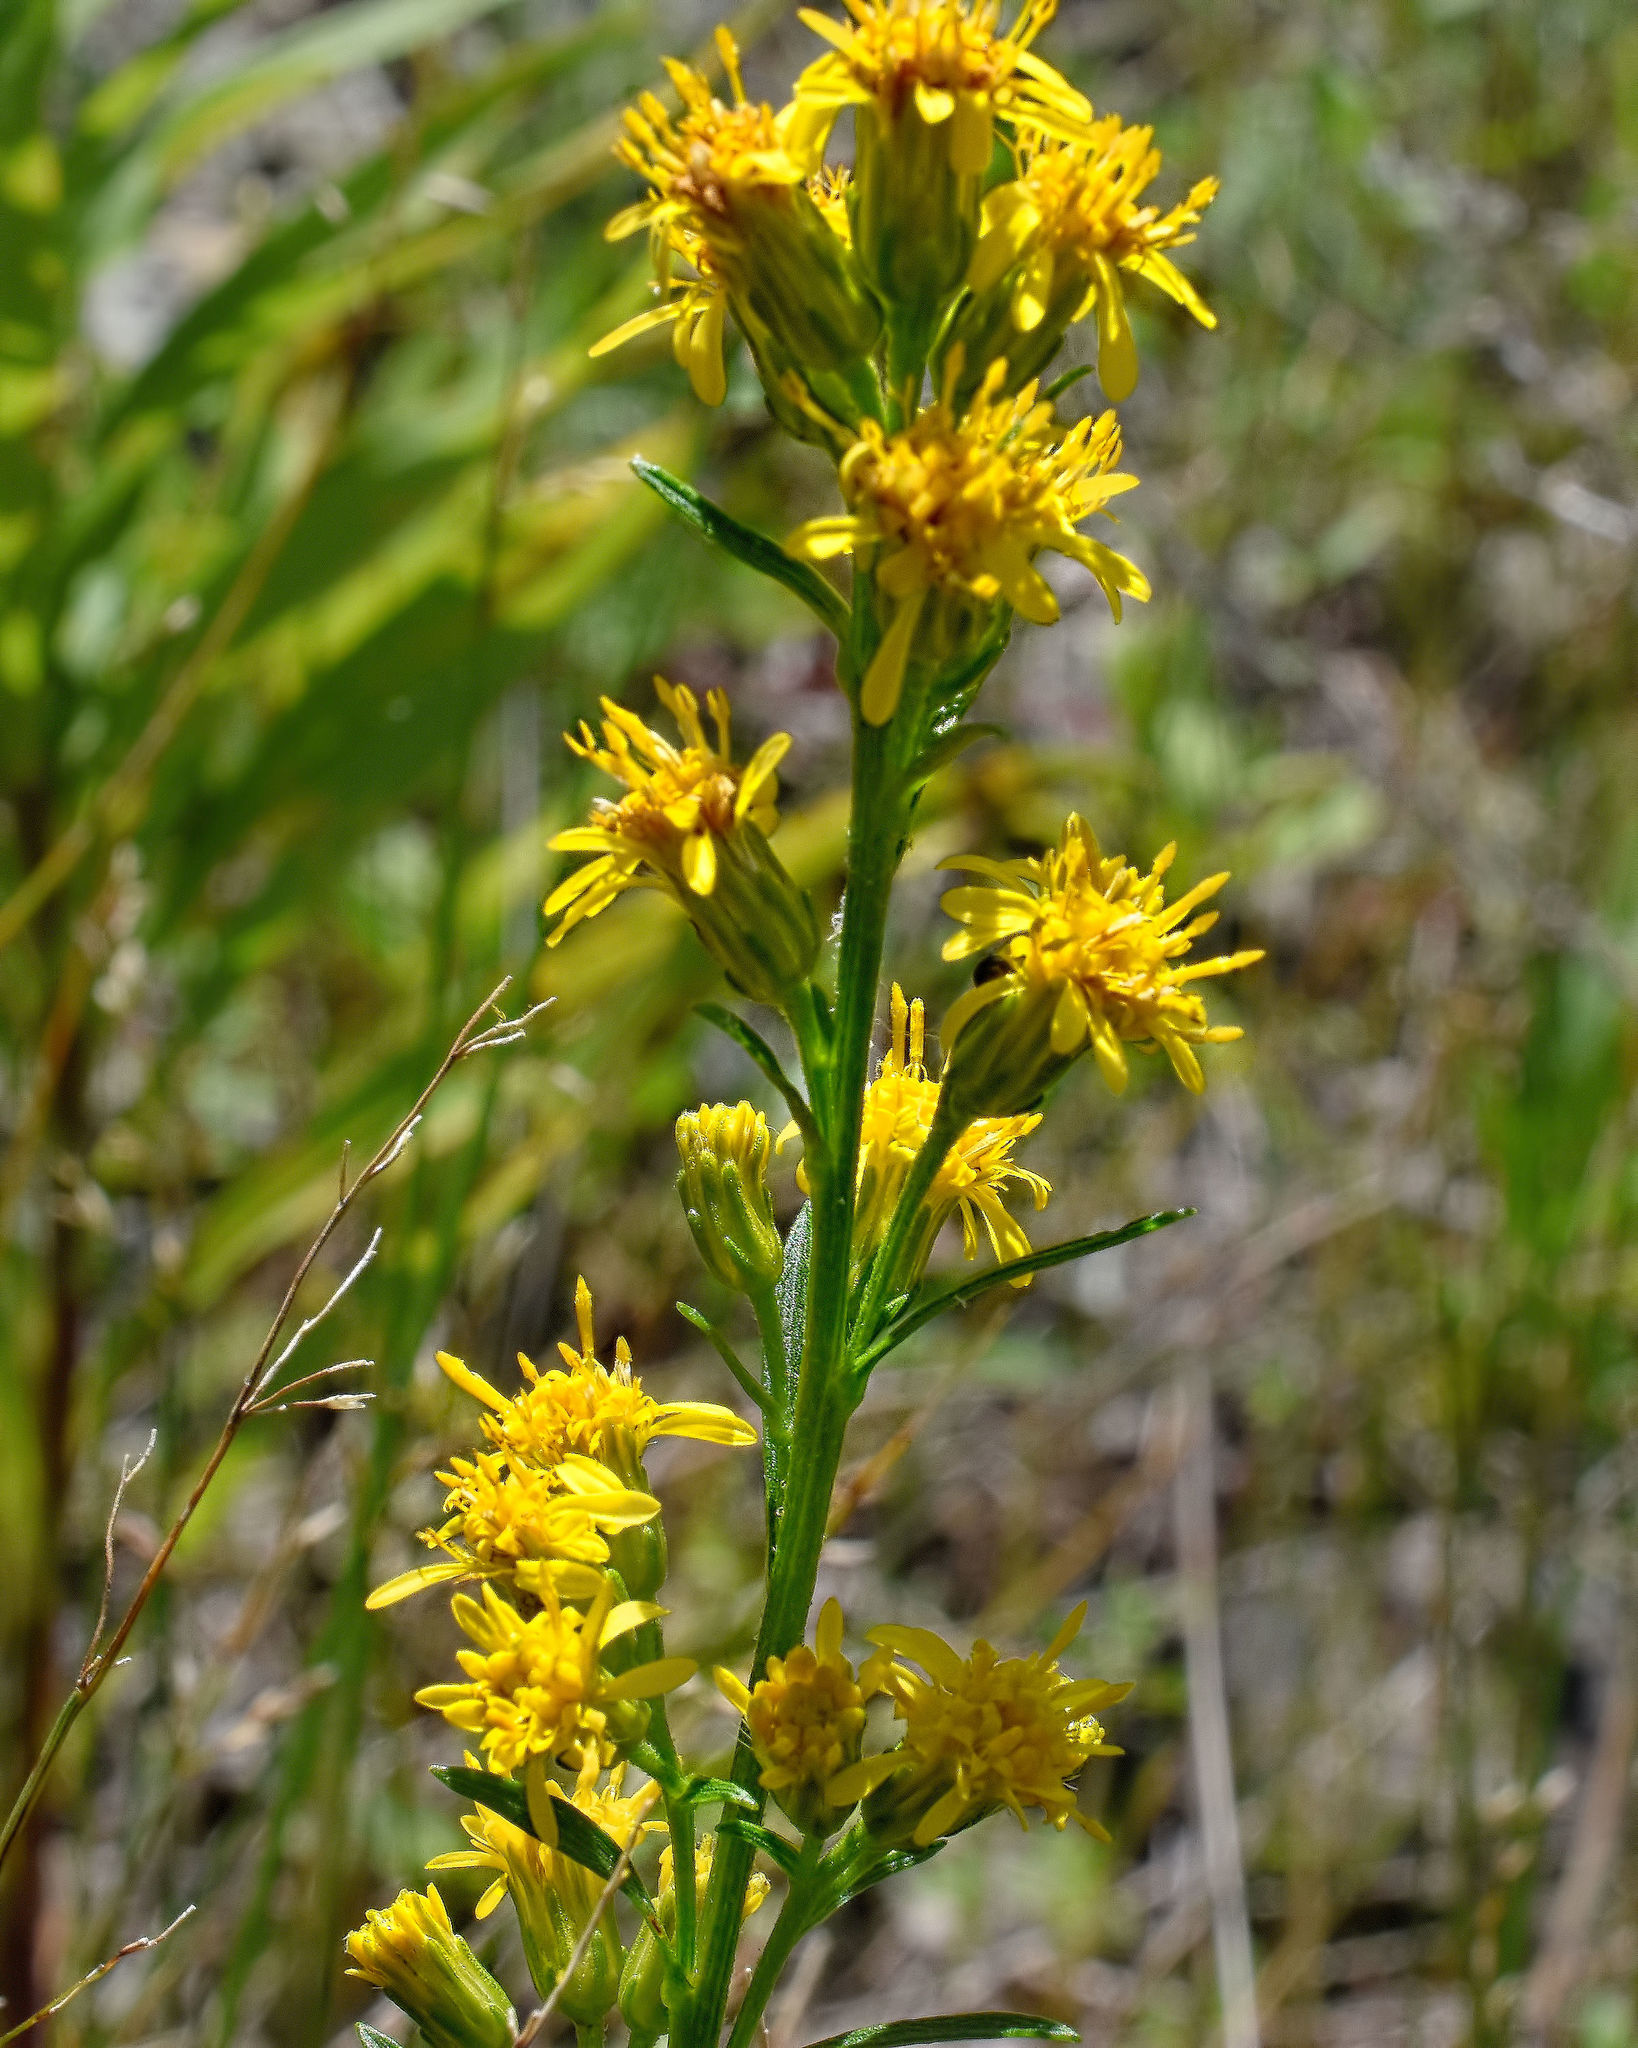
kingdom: Plantae
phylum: Tracheophyta
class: Magnoliopsida
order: Asterales
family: Asteraceae
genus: Solidago
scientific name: Solidago hispida
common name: Hairy goldenrod
